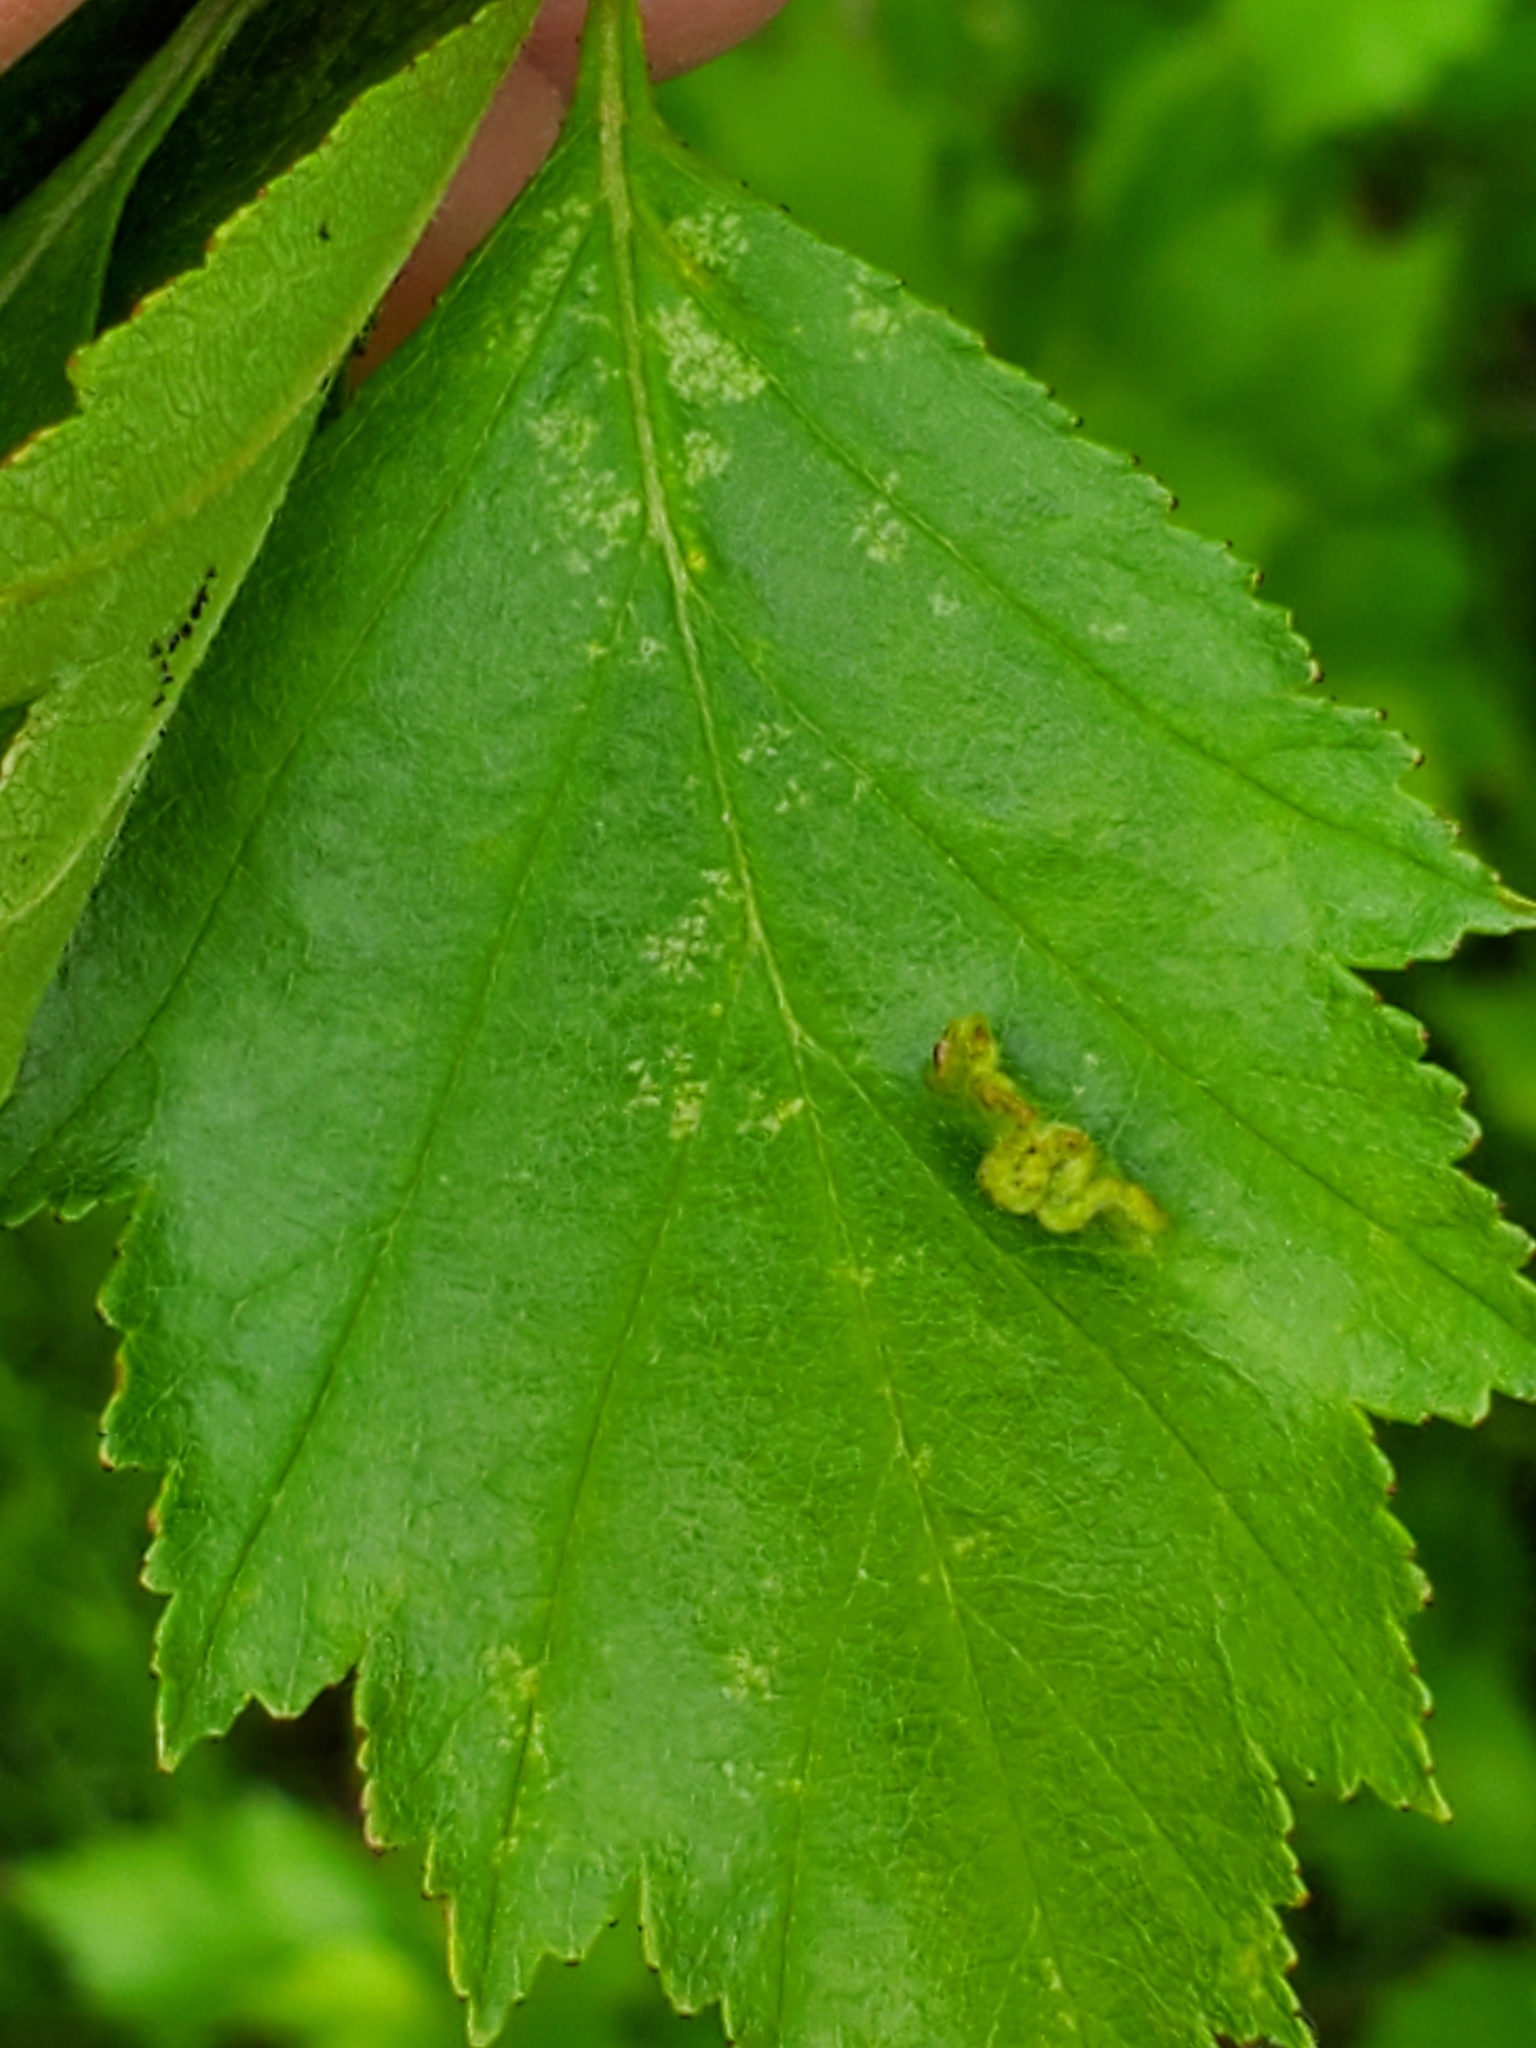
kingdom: Animalia
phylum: Arthropoda
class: Insecta
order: Diptera
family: Cecidomyiidae
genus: Blaesodiplosis
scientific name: Blaesodiplosis crataegifolia
